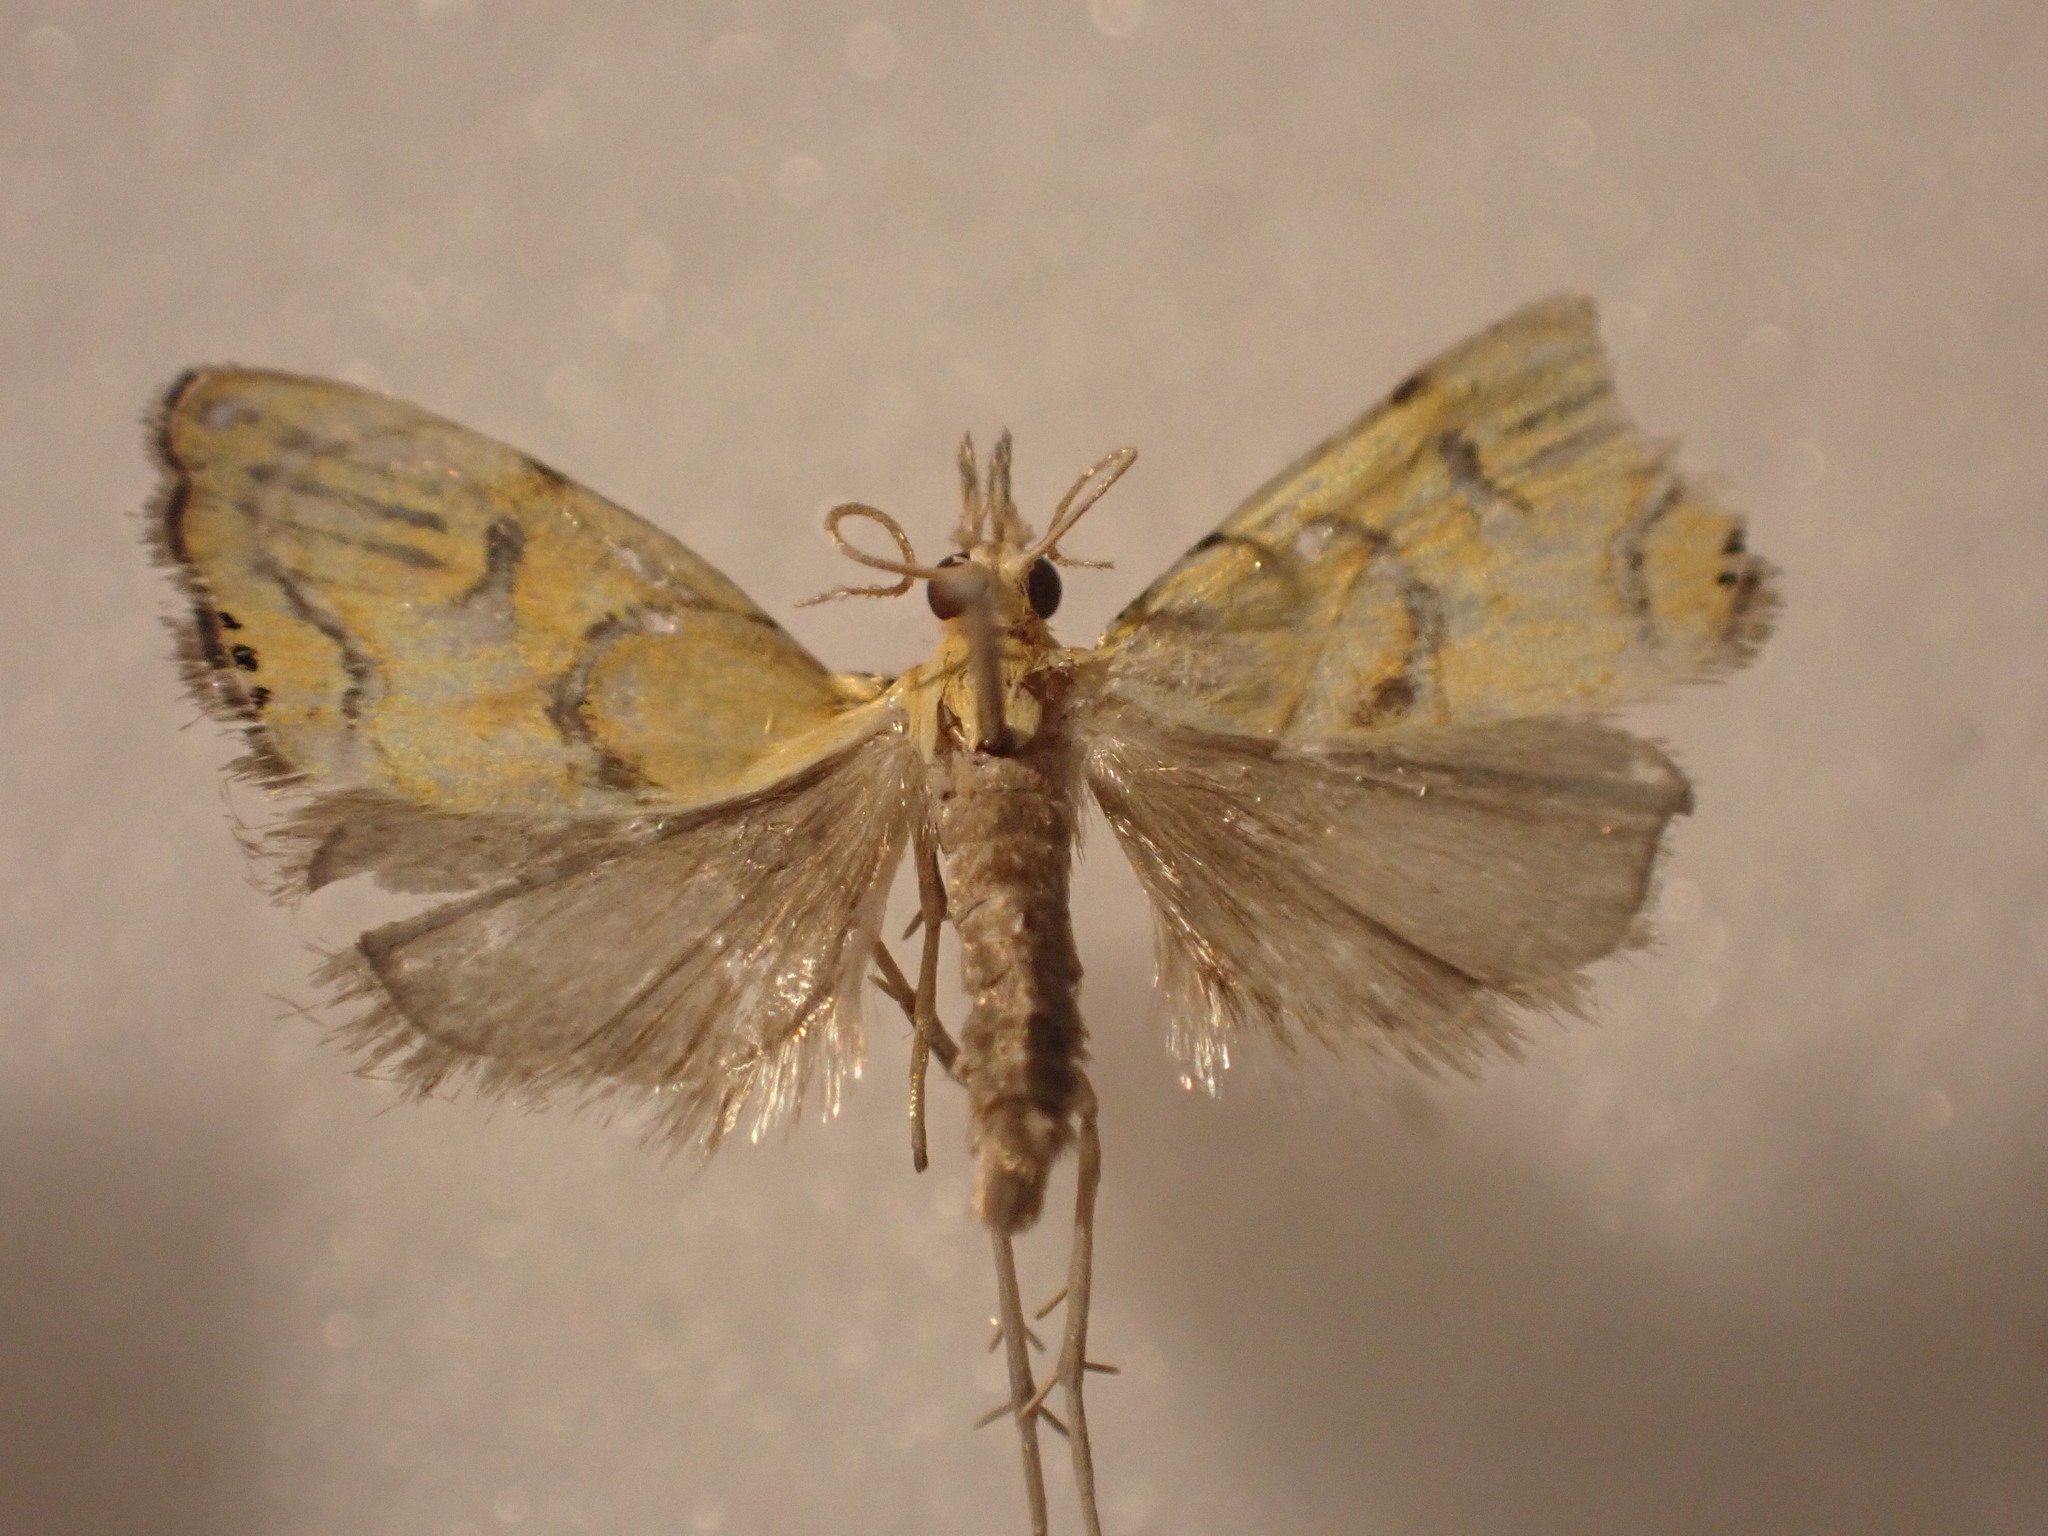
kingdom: Animalia
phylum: Arthropoda
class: Insecta
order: Lepidoptera
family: Crambidae
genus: Glaucocharis
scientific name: Glaucocharis auriscriptella
